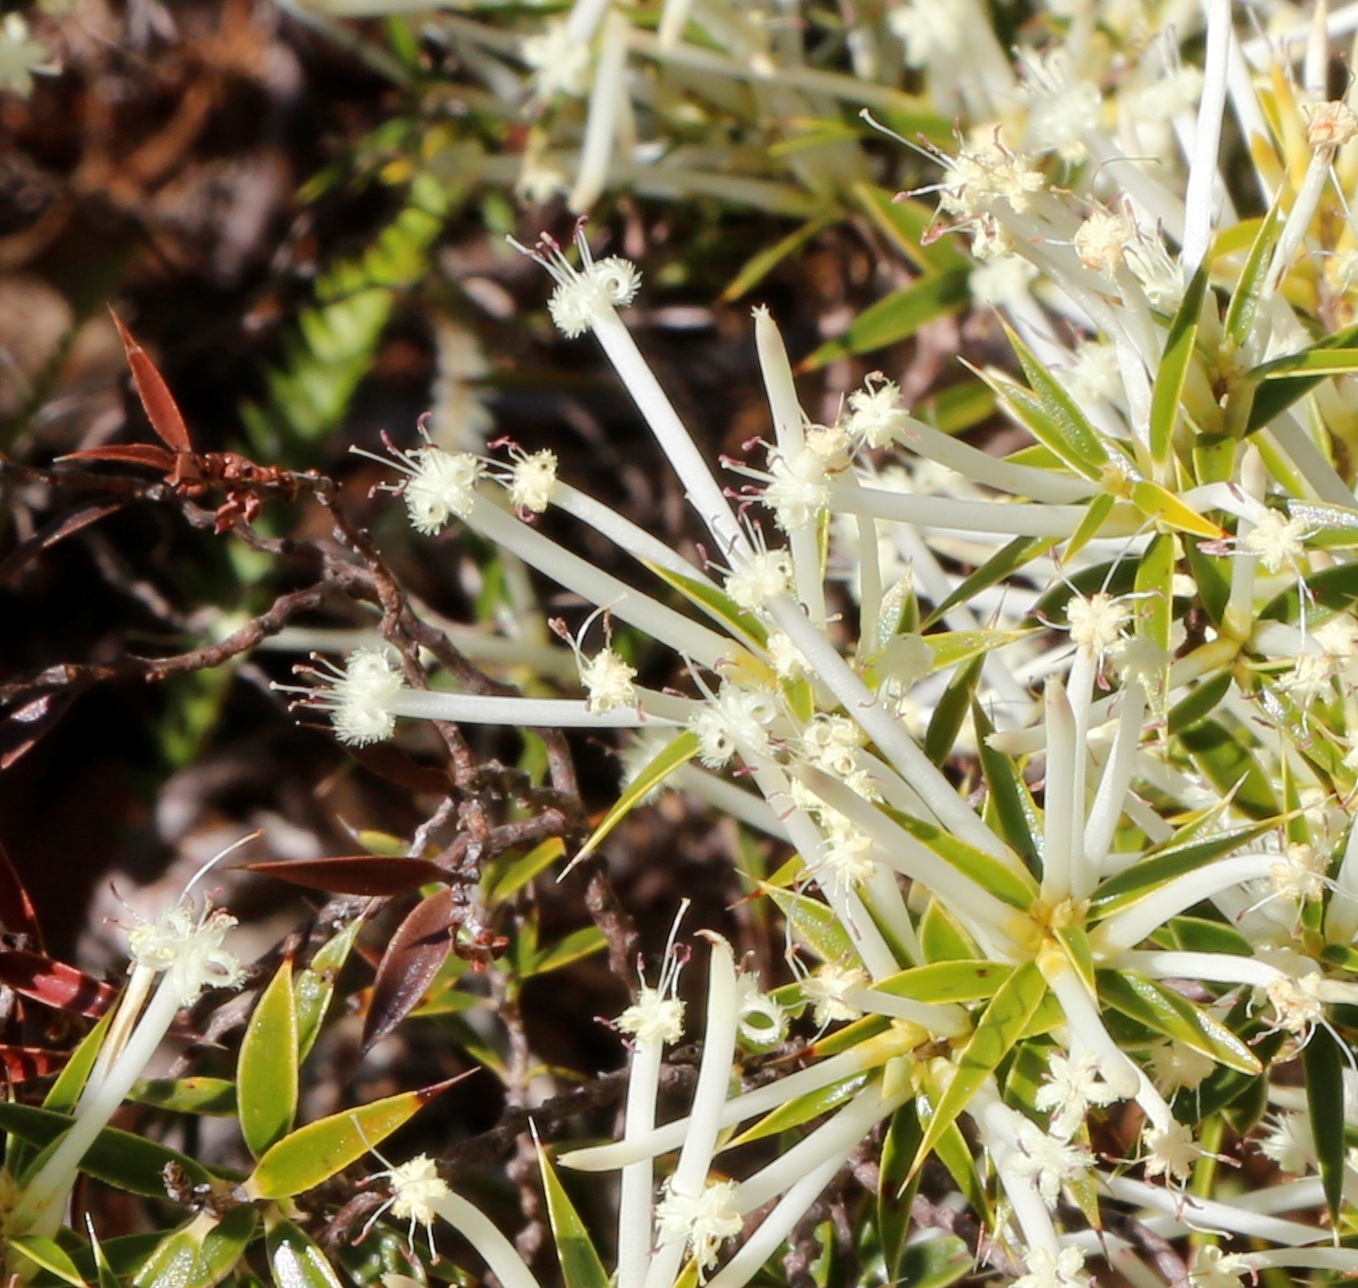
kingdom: Plantae
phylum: Tracheophyta
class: Magnoliopsida
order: Ericales
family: Ericaceae
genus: Styphelia
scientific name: Styphelia tenuiflora
